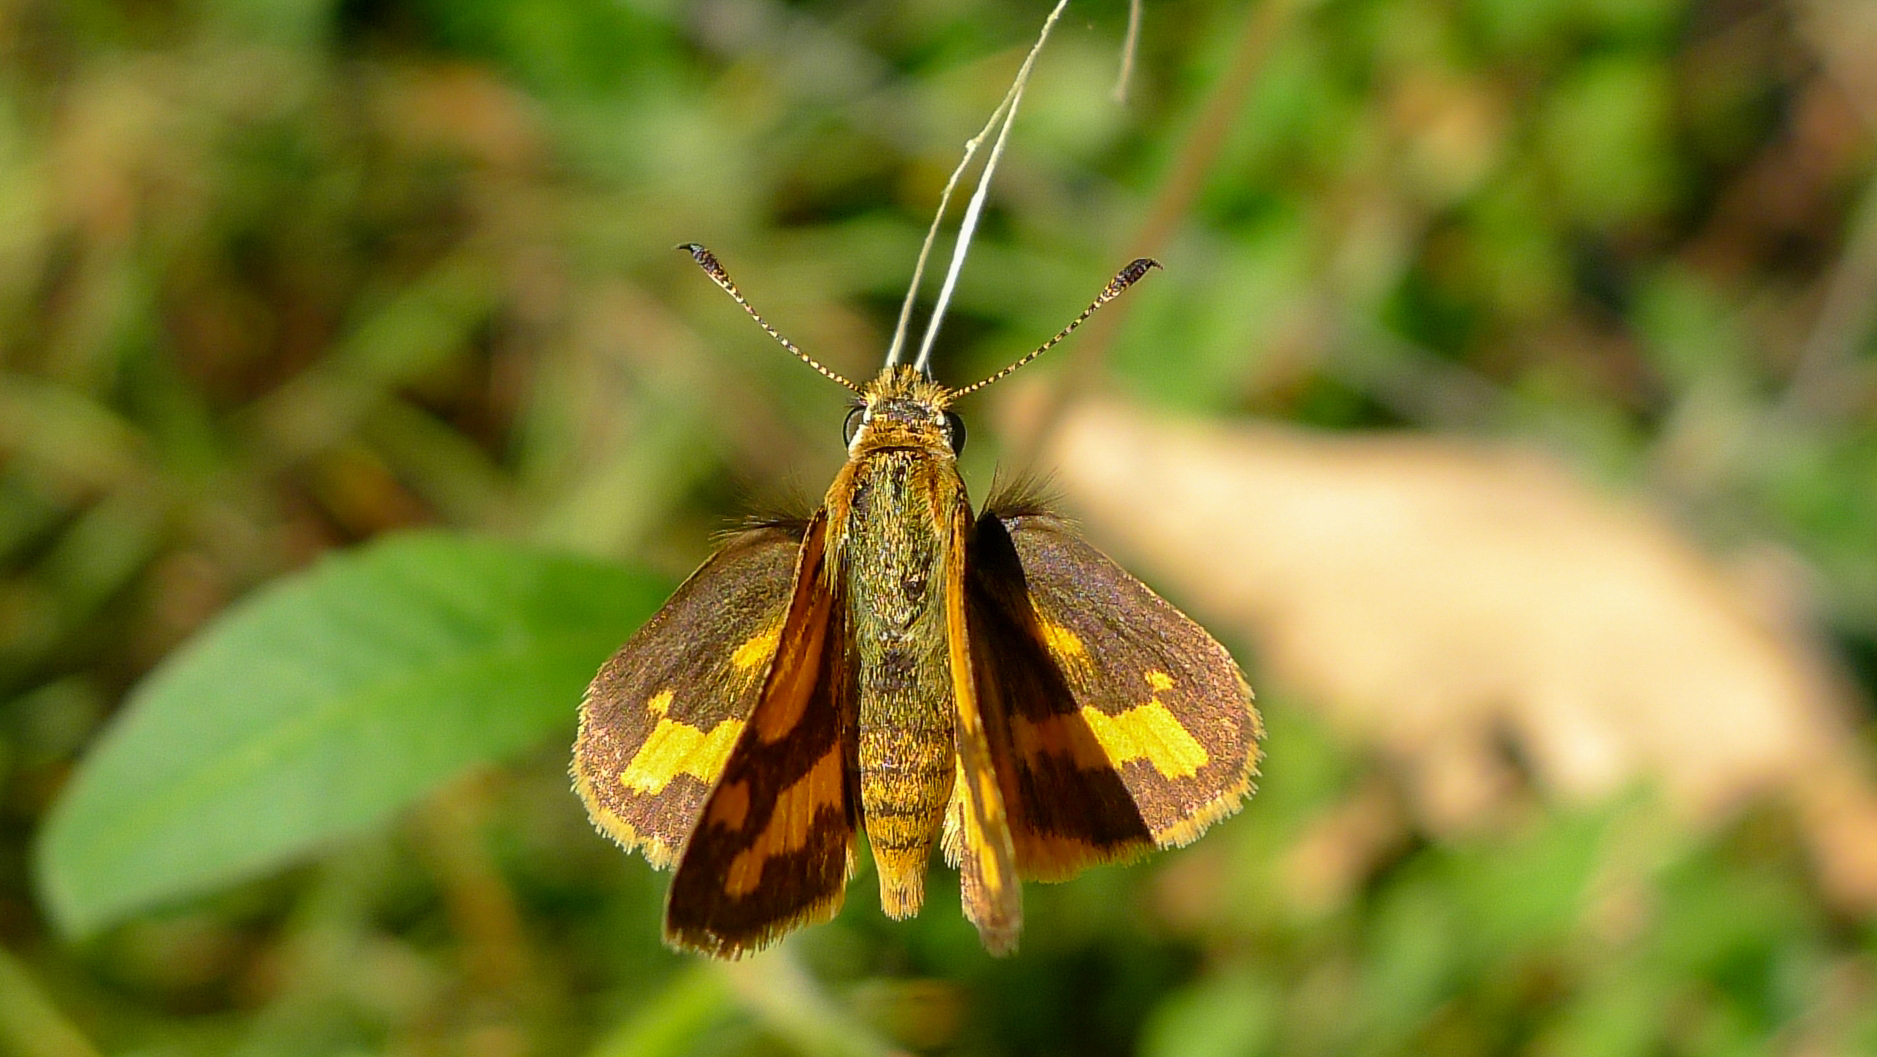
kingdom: Animalia
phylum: Arthropoda
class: Insecta
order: Lepidoptera
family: Hesperiidae
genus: Ocybadistes
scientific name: Ocybadistes flavovittata
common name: Narrow-brand grass-dart
